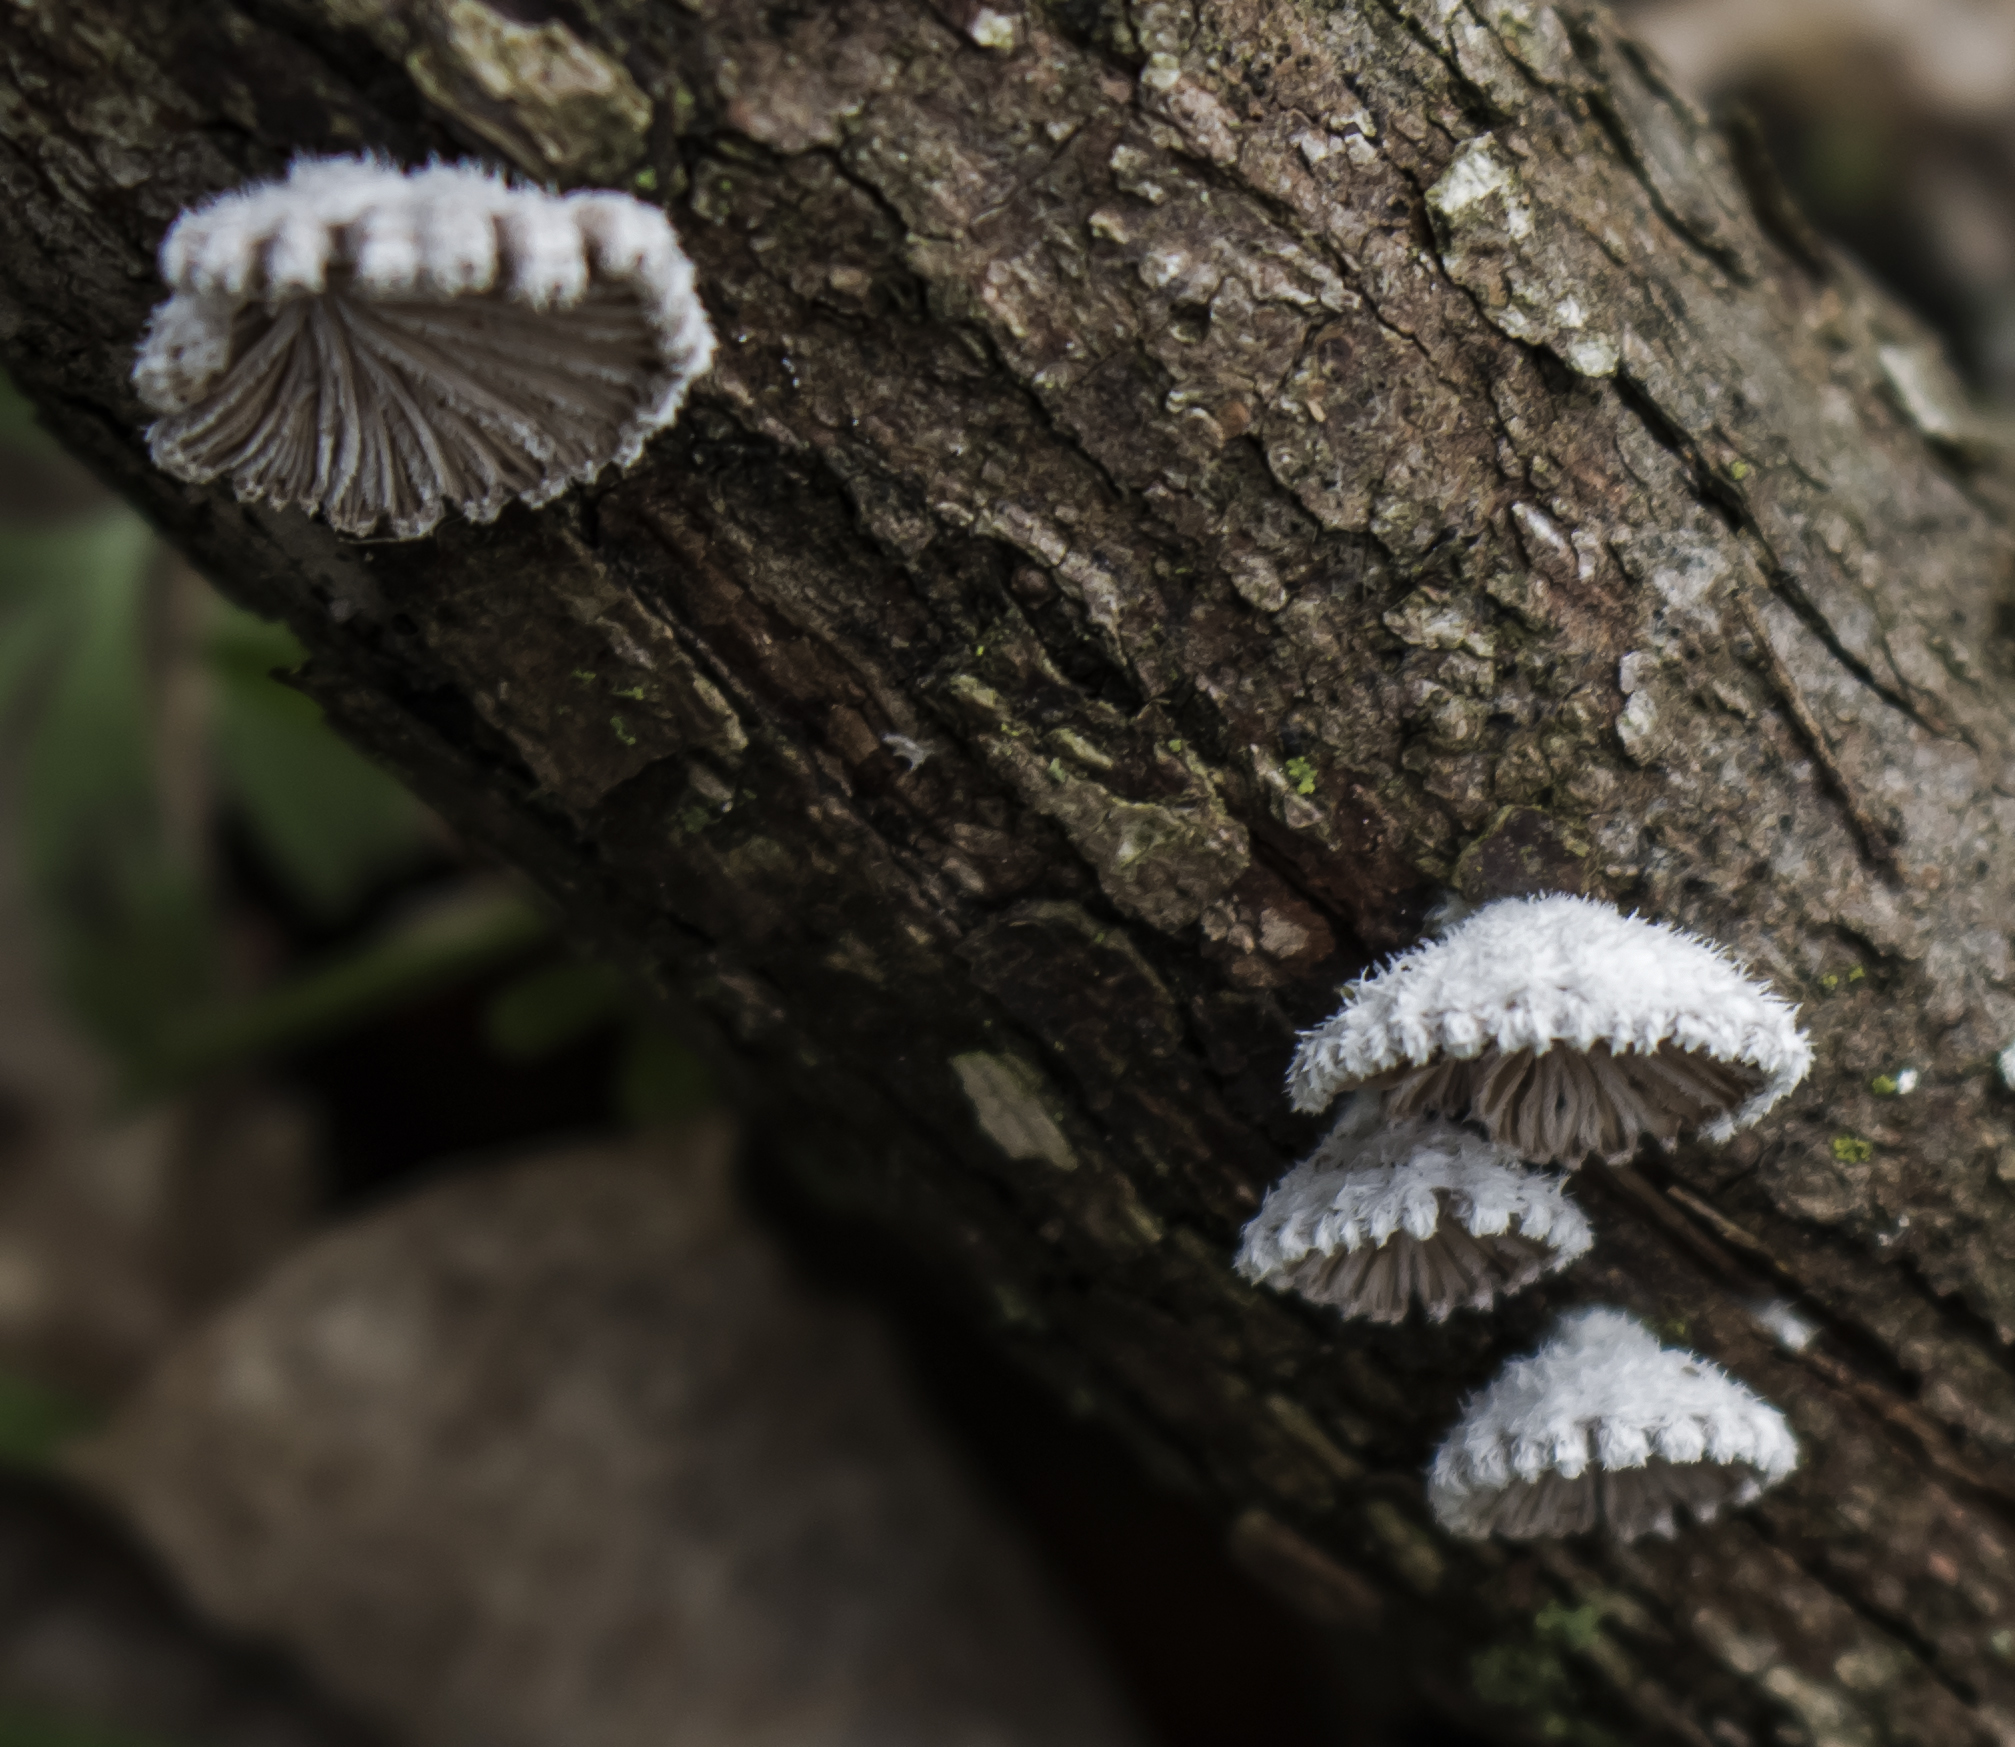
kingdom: Fungi
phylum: Basidiomycota
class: Agaricomycetes
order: Agaricales
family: Schizophyllaceae
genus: Schizophyllum
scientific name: Schizophyllum commune
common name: Common porecrust
